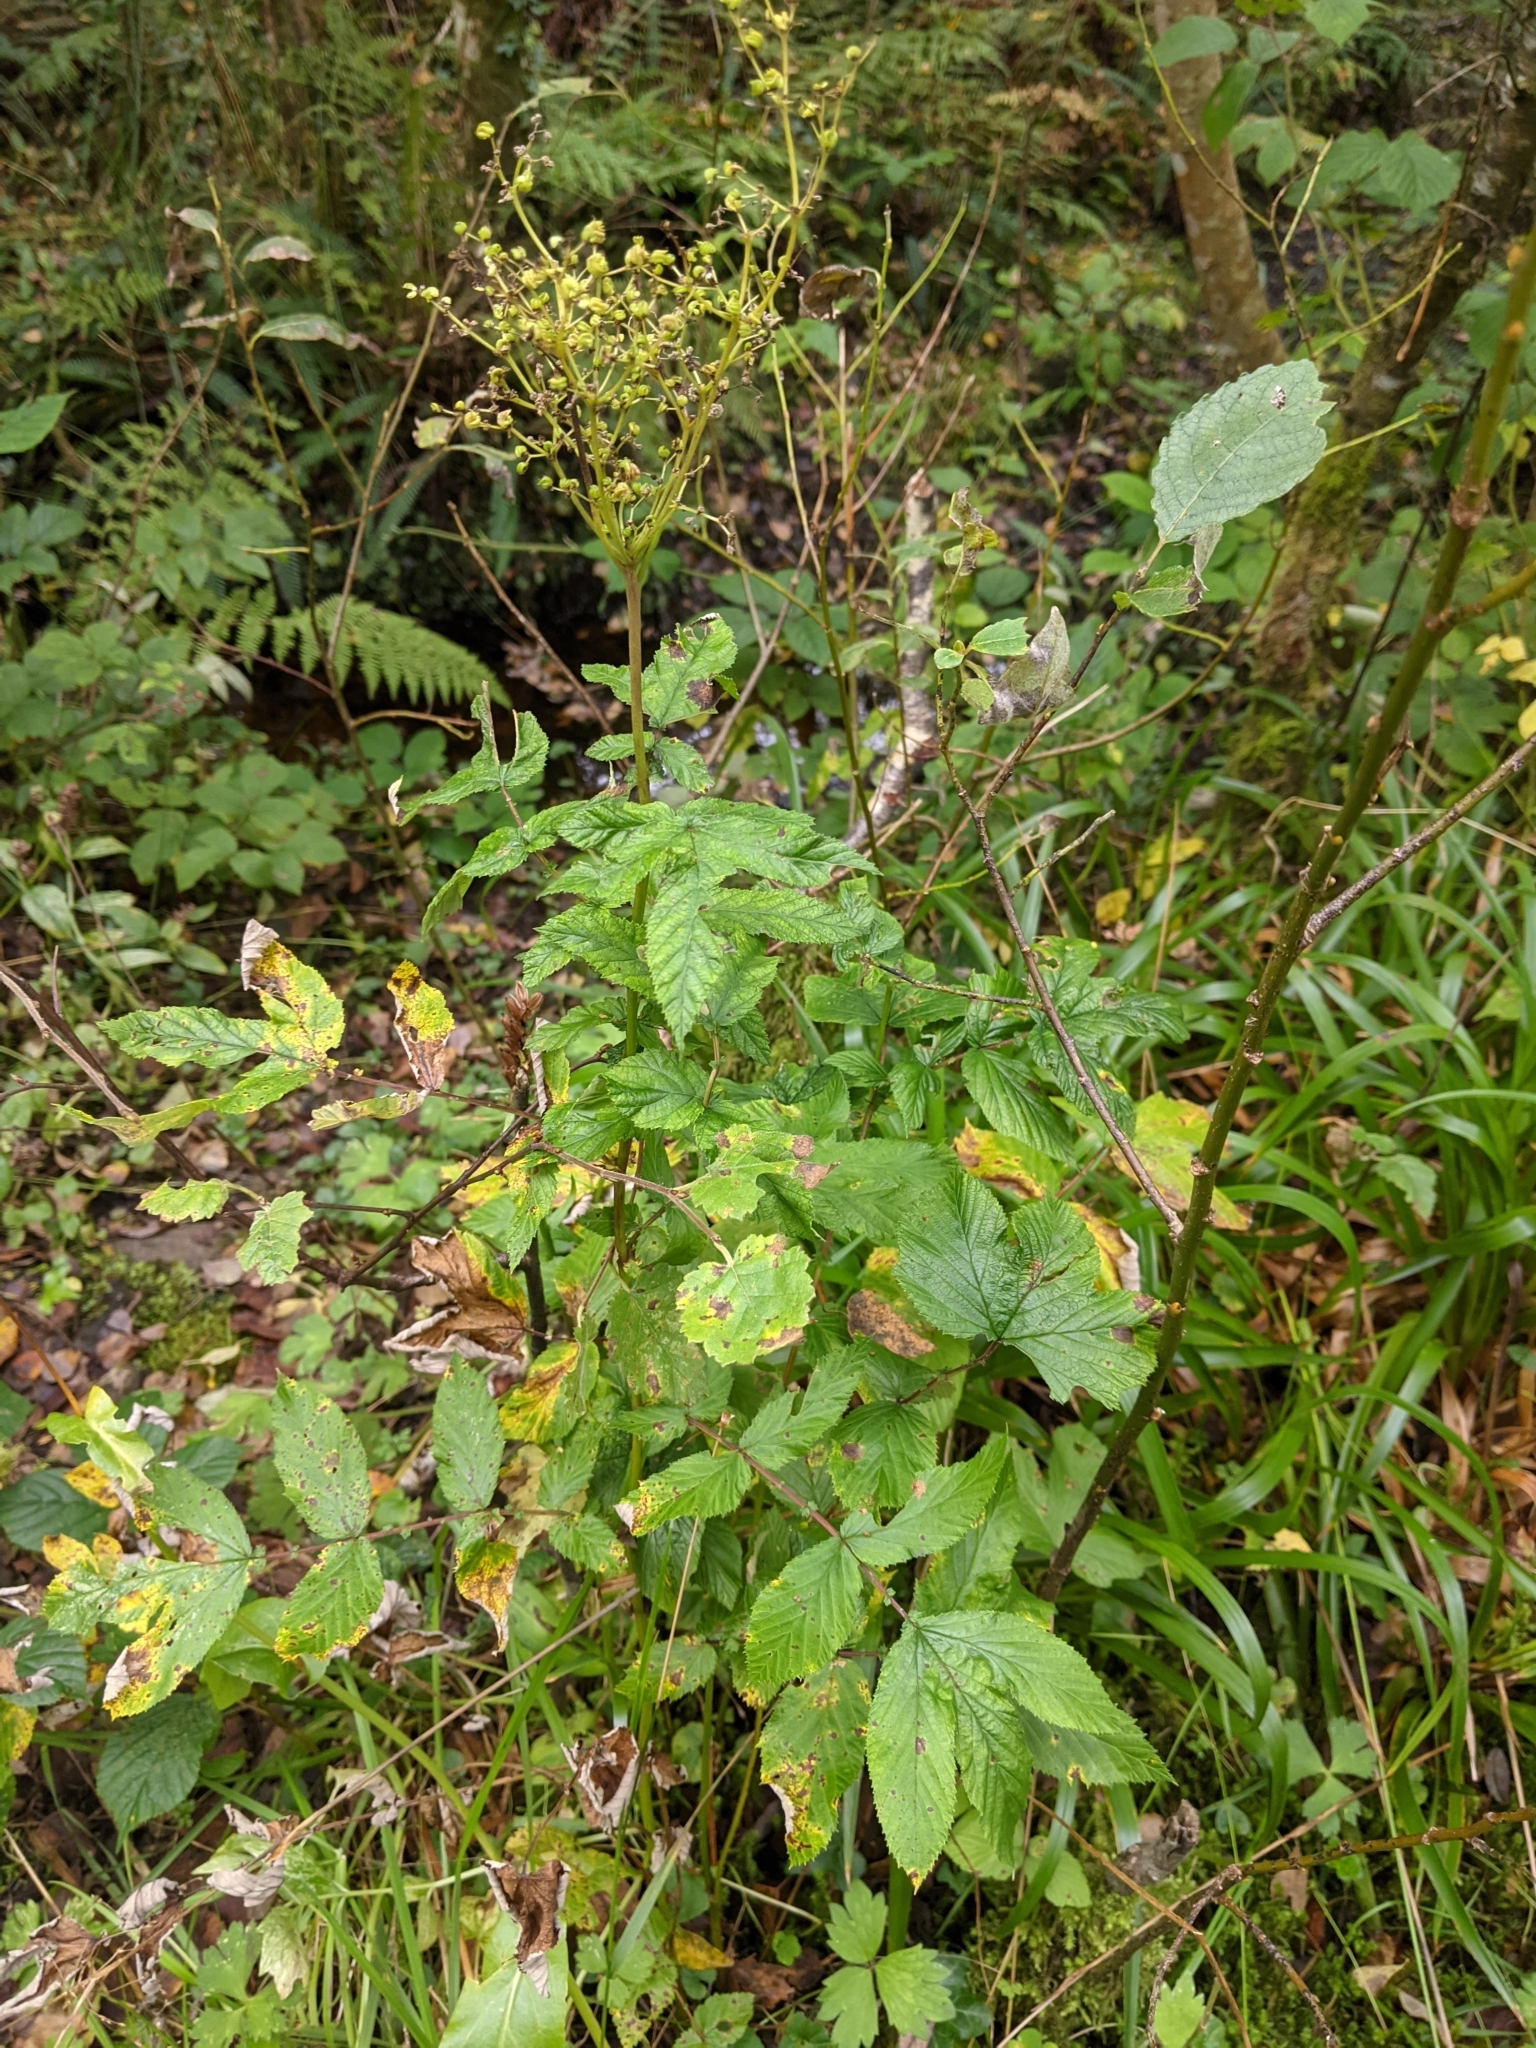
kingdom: Plantae
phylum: Tracheophyta
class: Magnoliopsida
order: Rosales
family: Rosaceae
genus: Filipendula
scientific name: Filipendula ulmaria
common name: Meadowsweet
